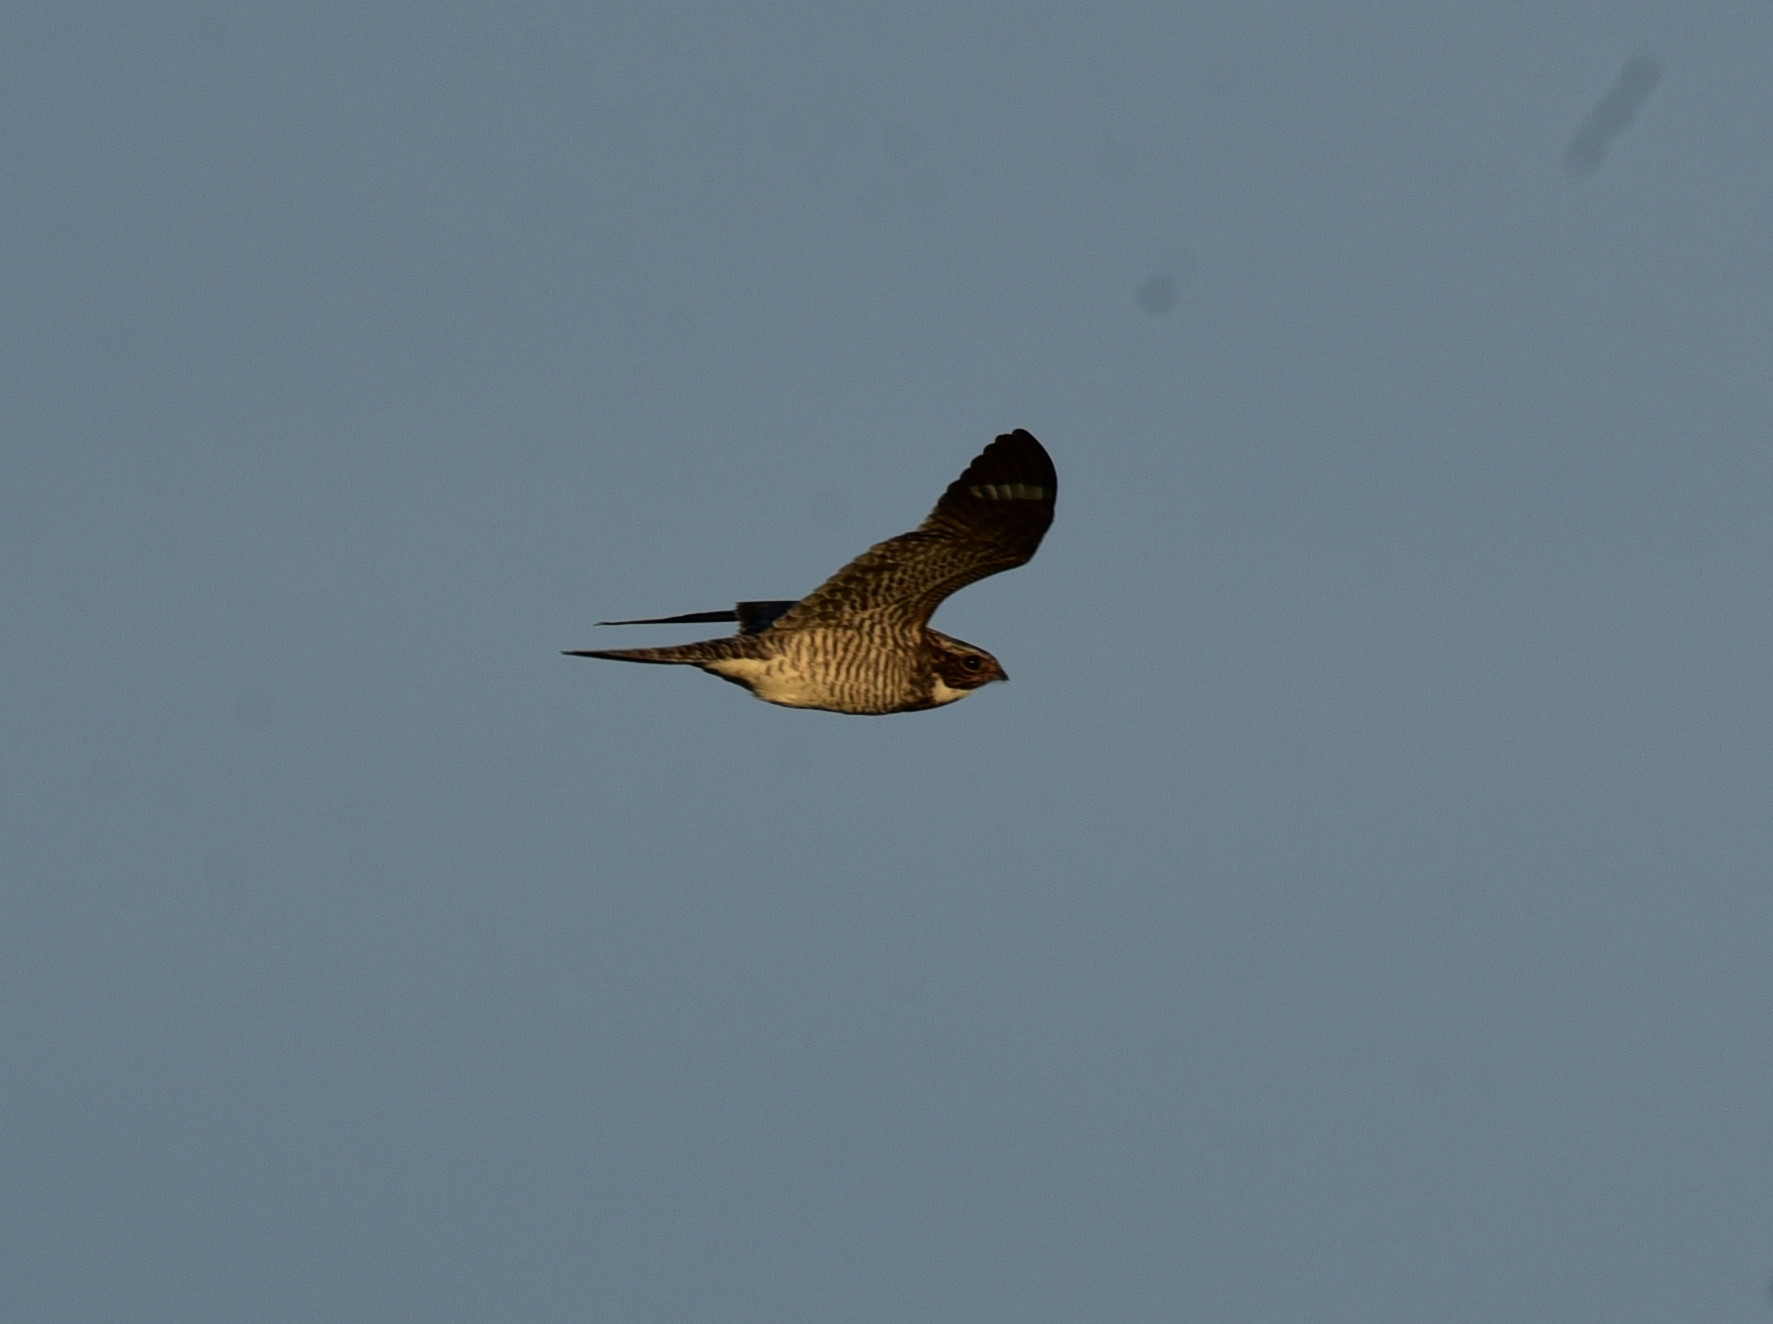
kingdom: Animalia
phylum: Chordata
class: Aves
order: Caprimulgiformes
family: Caprimulgidae
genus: Chordeiles
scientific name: Chordeiles minor
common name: Common nighthawk
